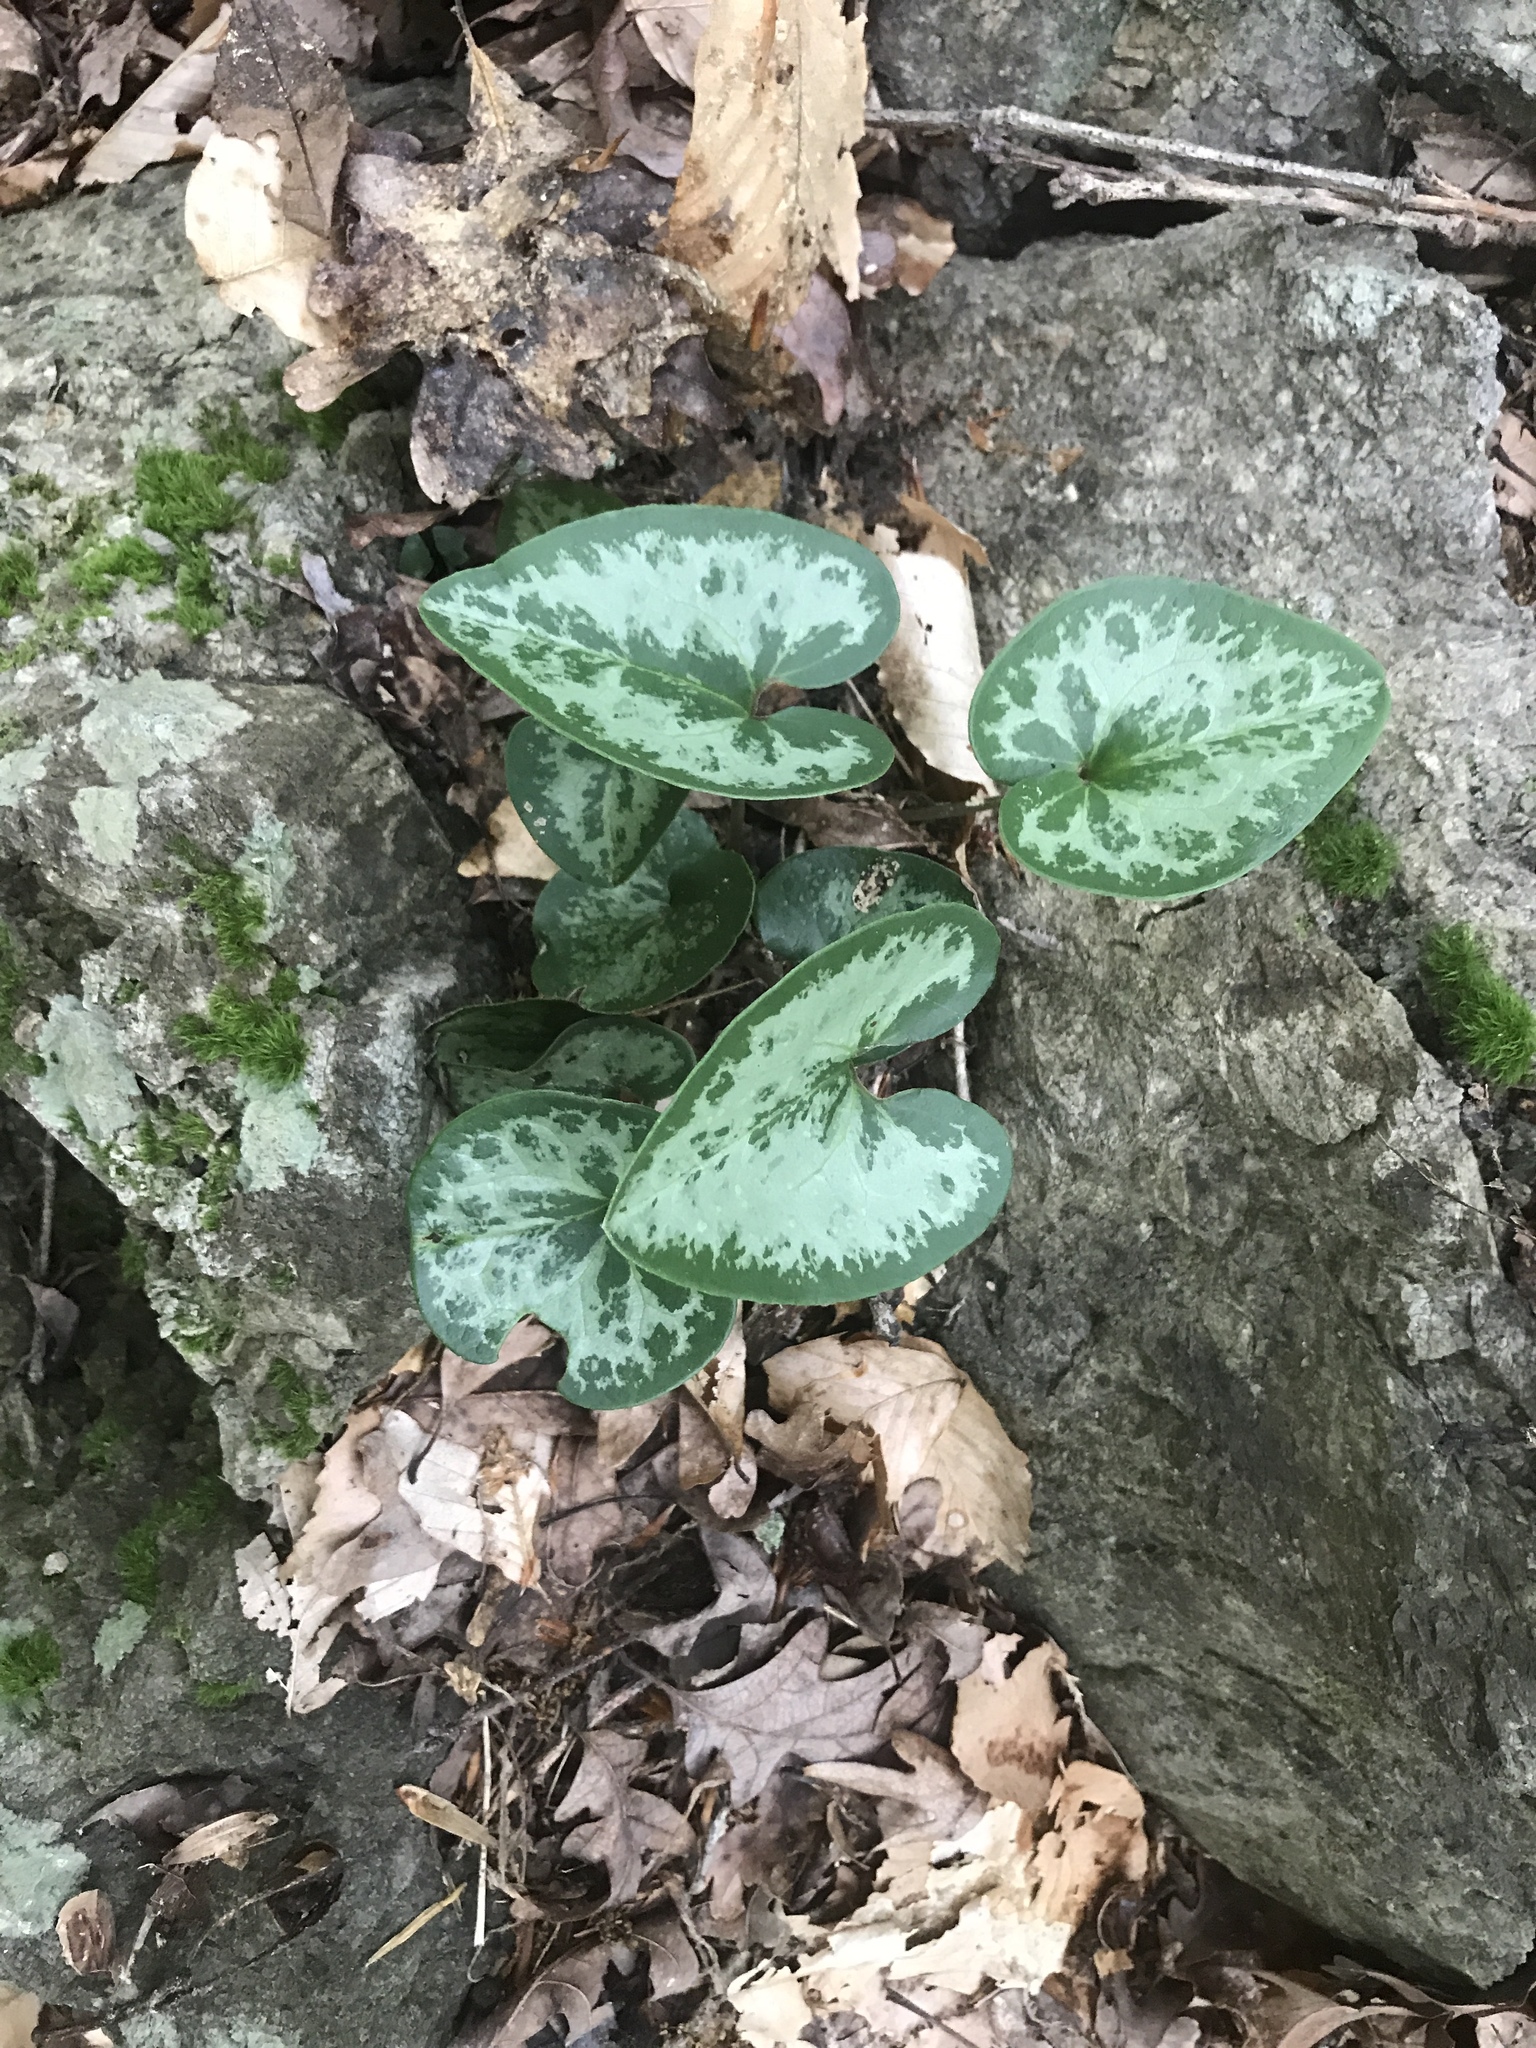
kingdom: Plantae
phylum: Tracheophyta
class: Magnoliopsida
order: Piperales
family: Aristolochiaceae
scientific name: Aristolochiaceae
